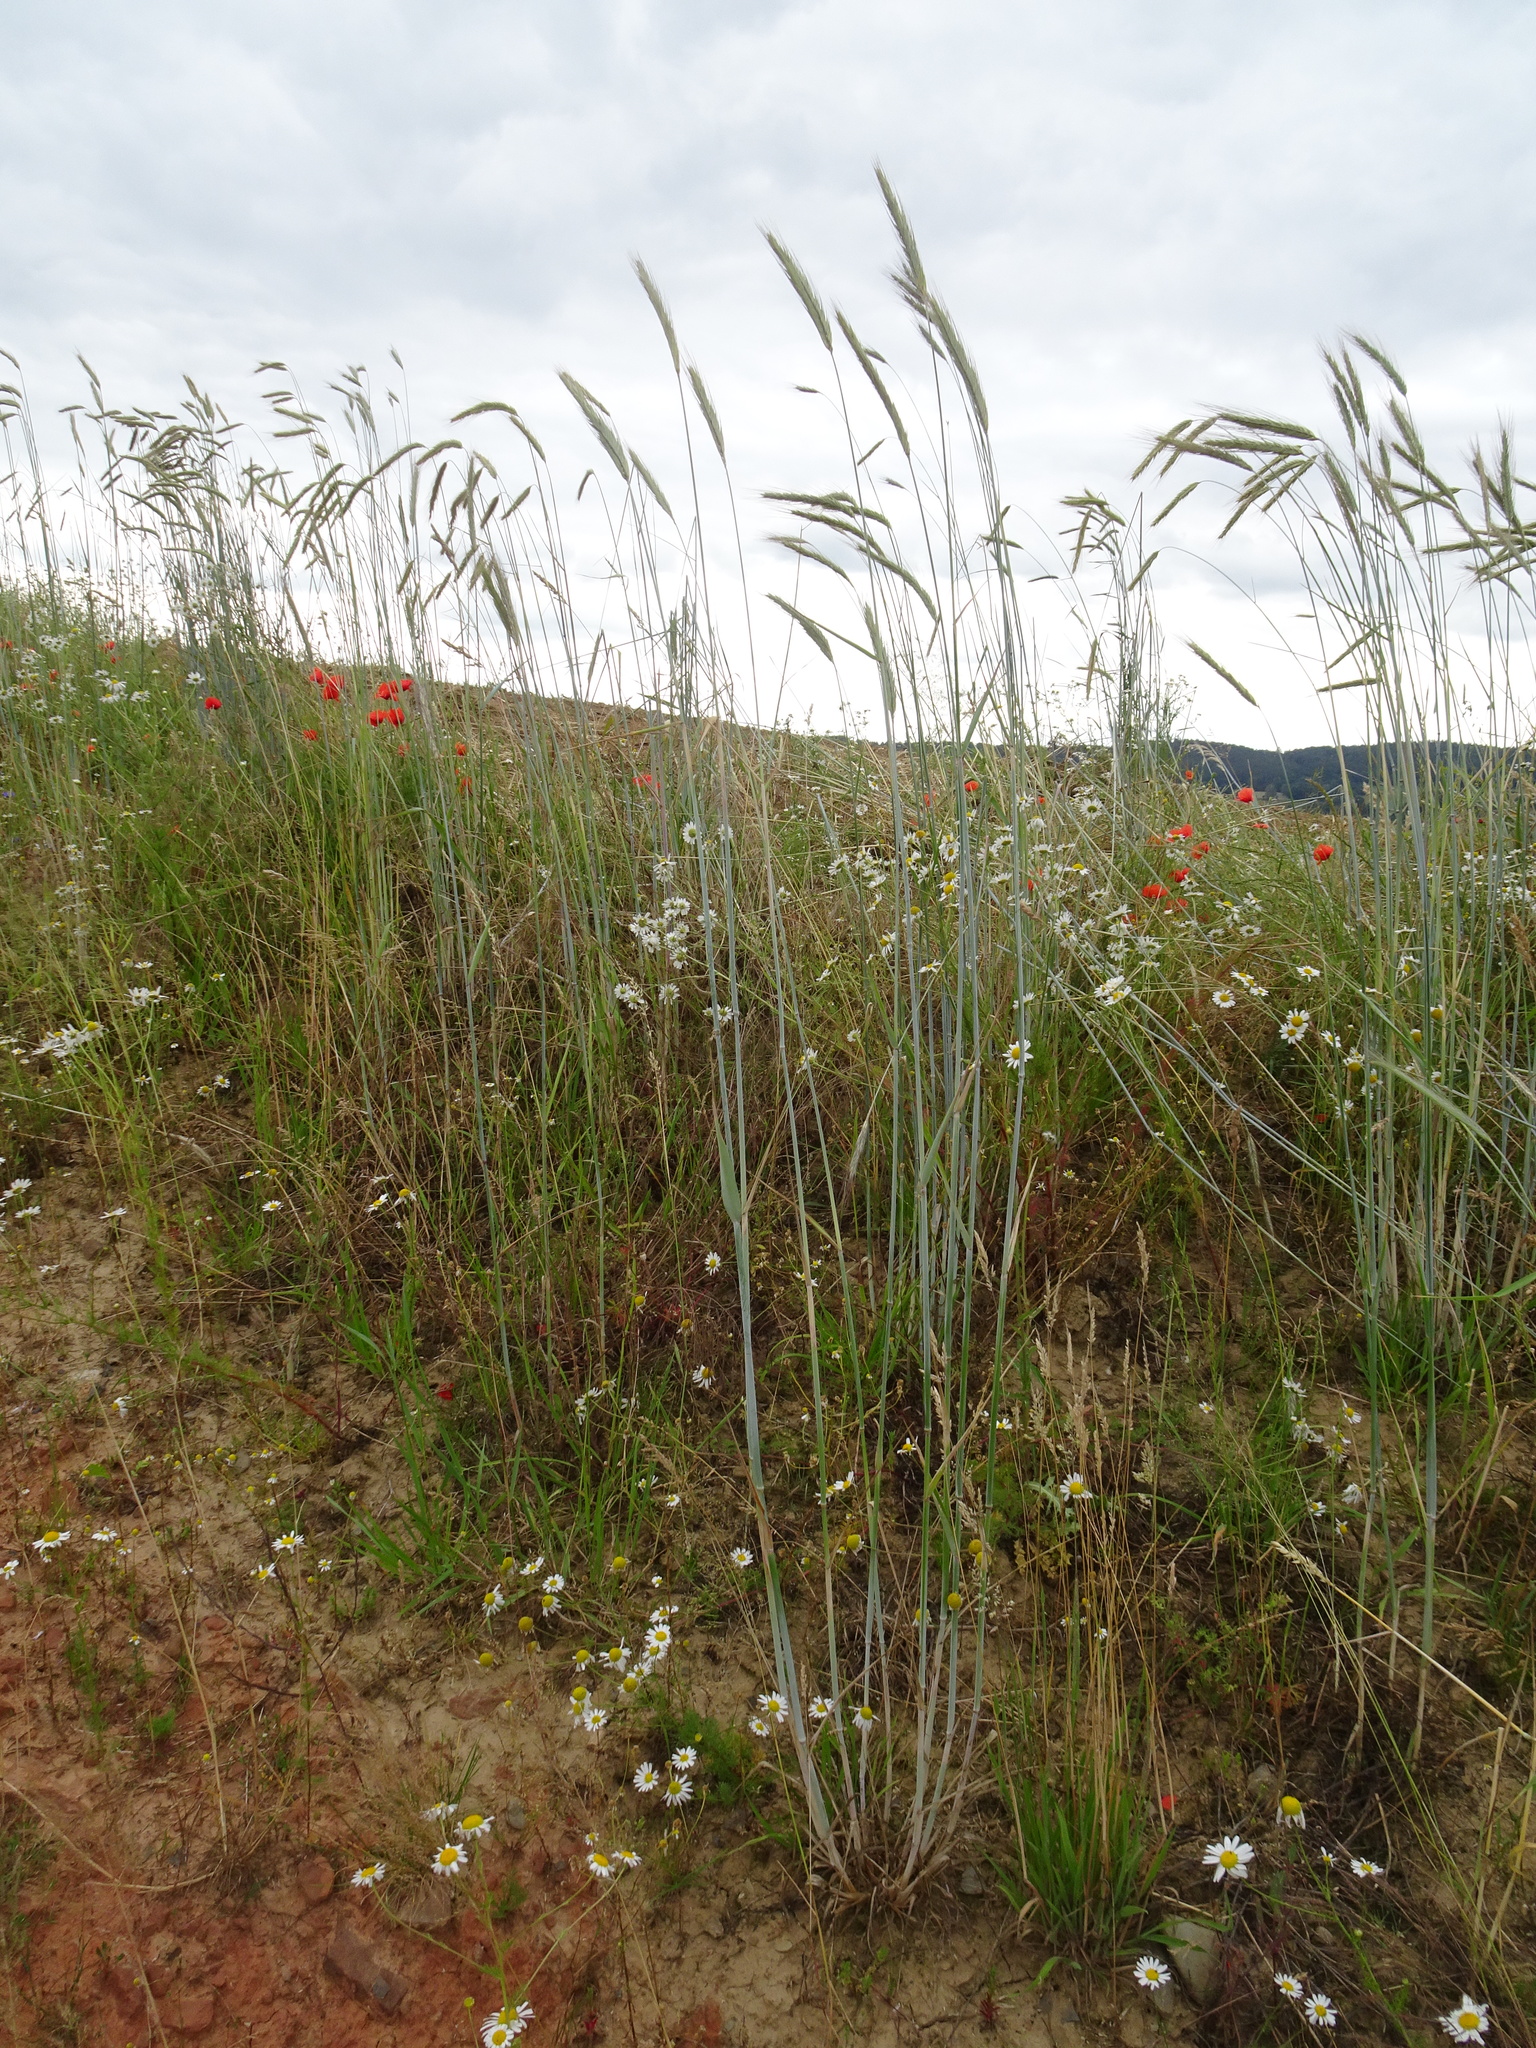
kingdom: Plantae
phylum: Tracheophyta
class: Liliopsida
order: Poales
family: Poaceae
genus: Secale
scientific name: Secale cereale
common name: Rye
